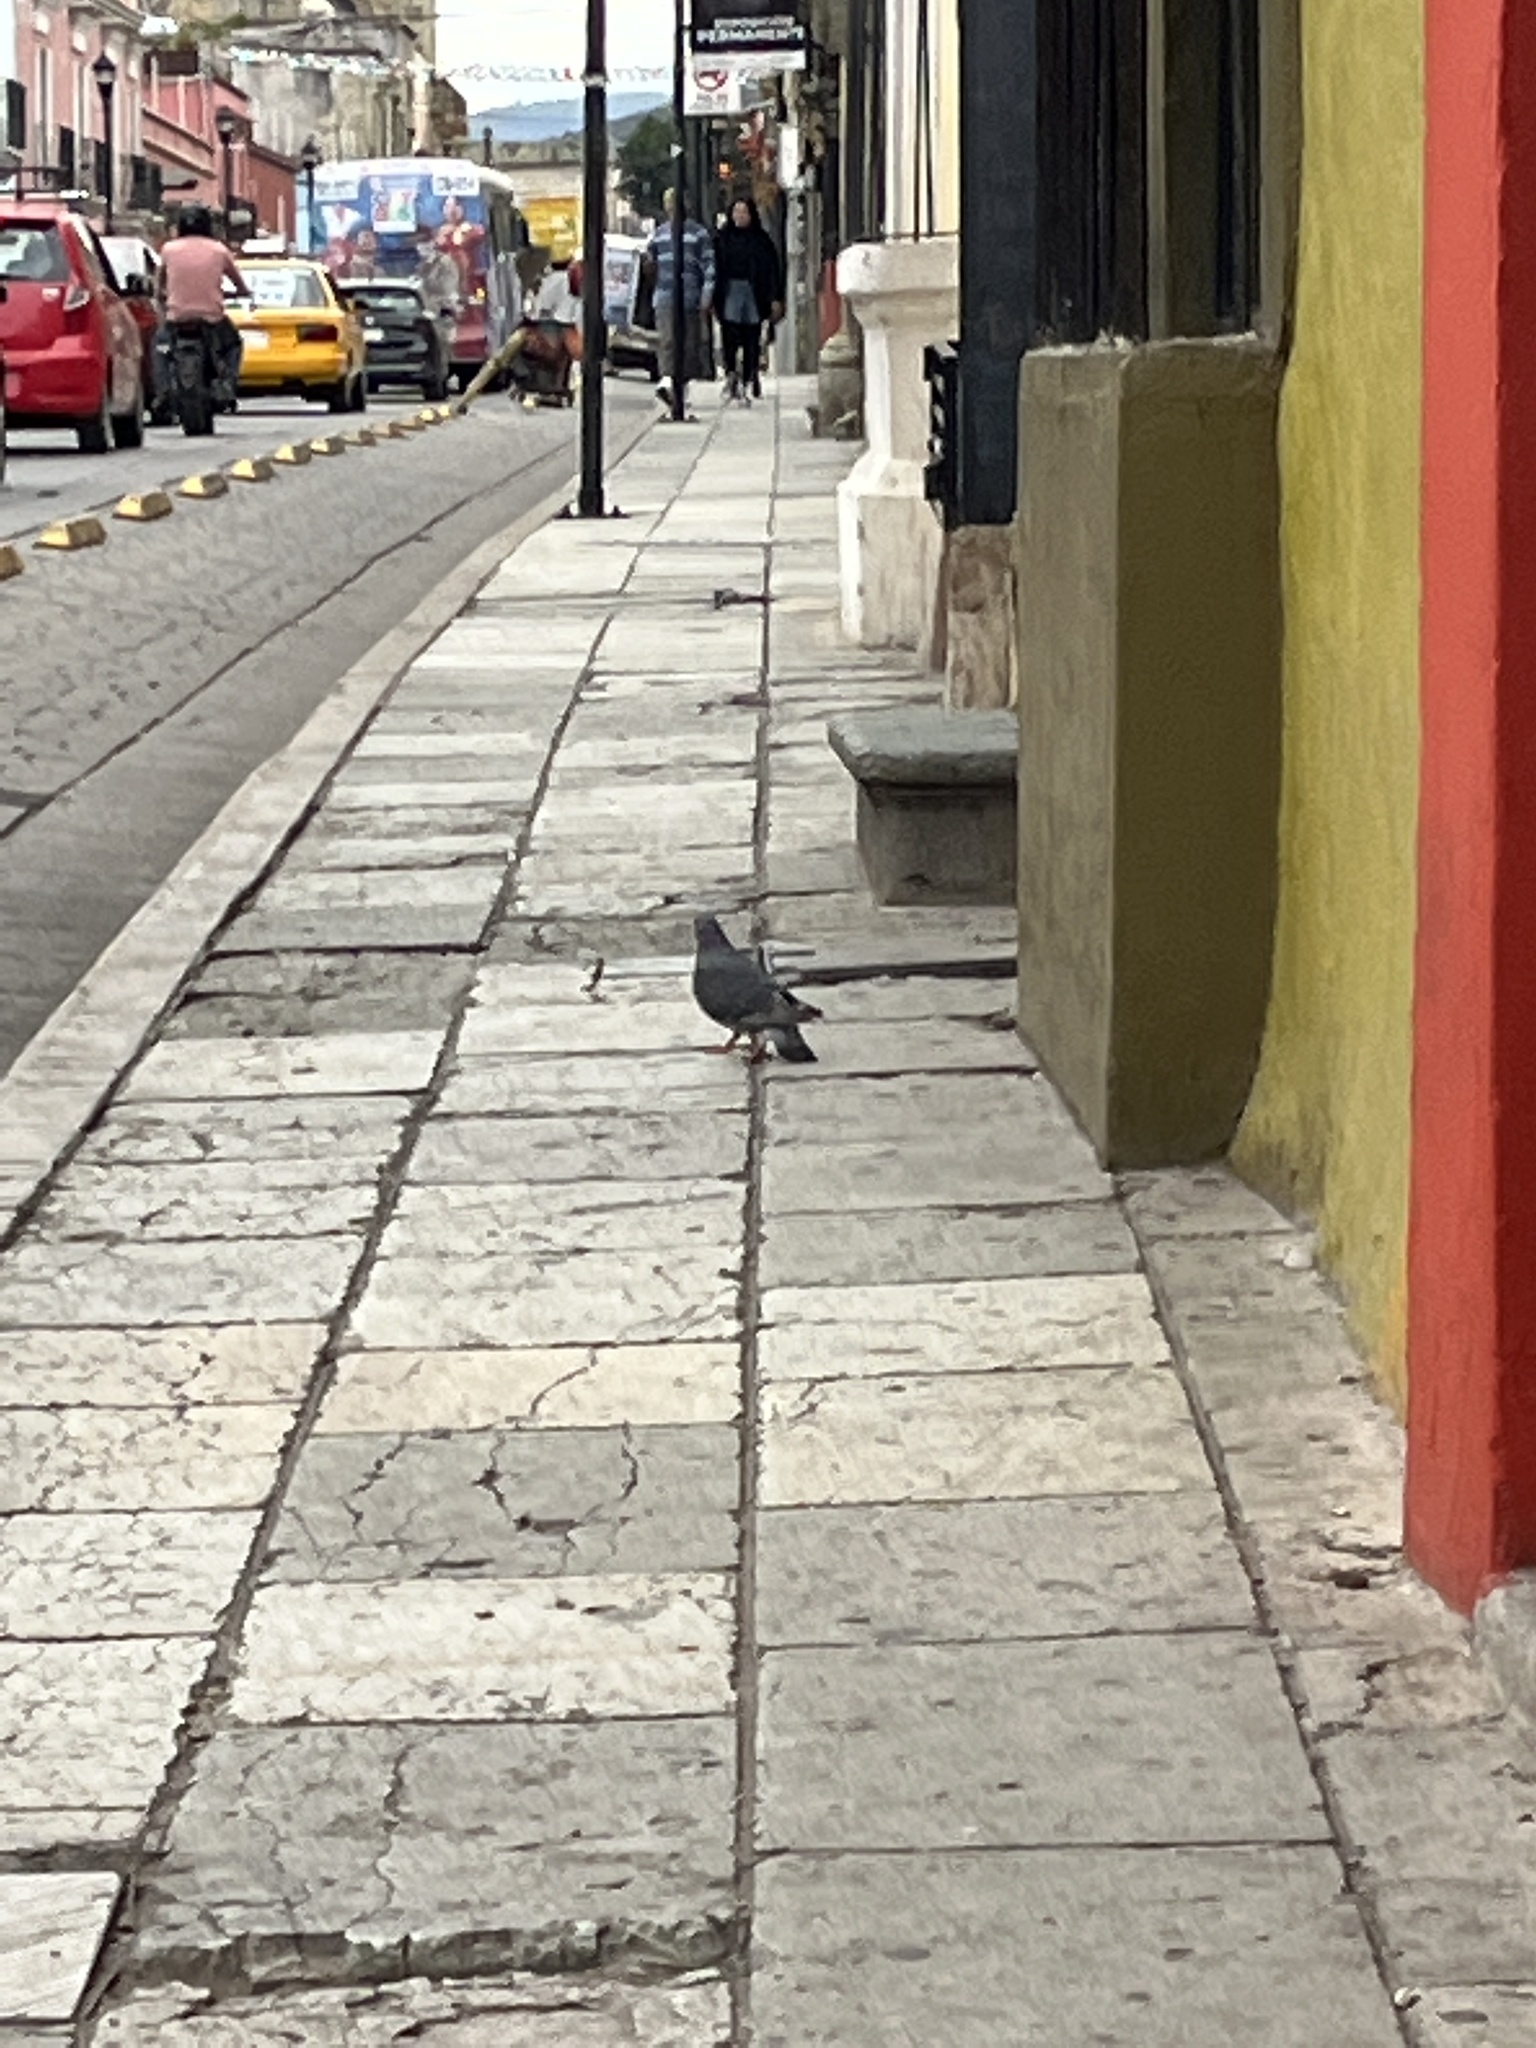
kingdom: Animalia
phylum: Chordata
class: Aves
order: Columbiformes
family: Columbidae
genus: Columba
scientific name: Columba livia
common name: Rock pigeon
